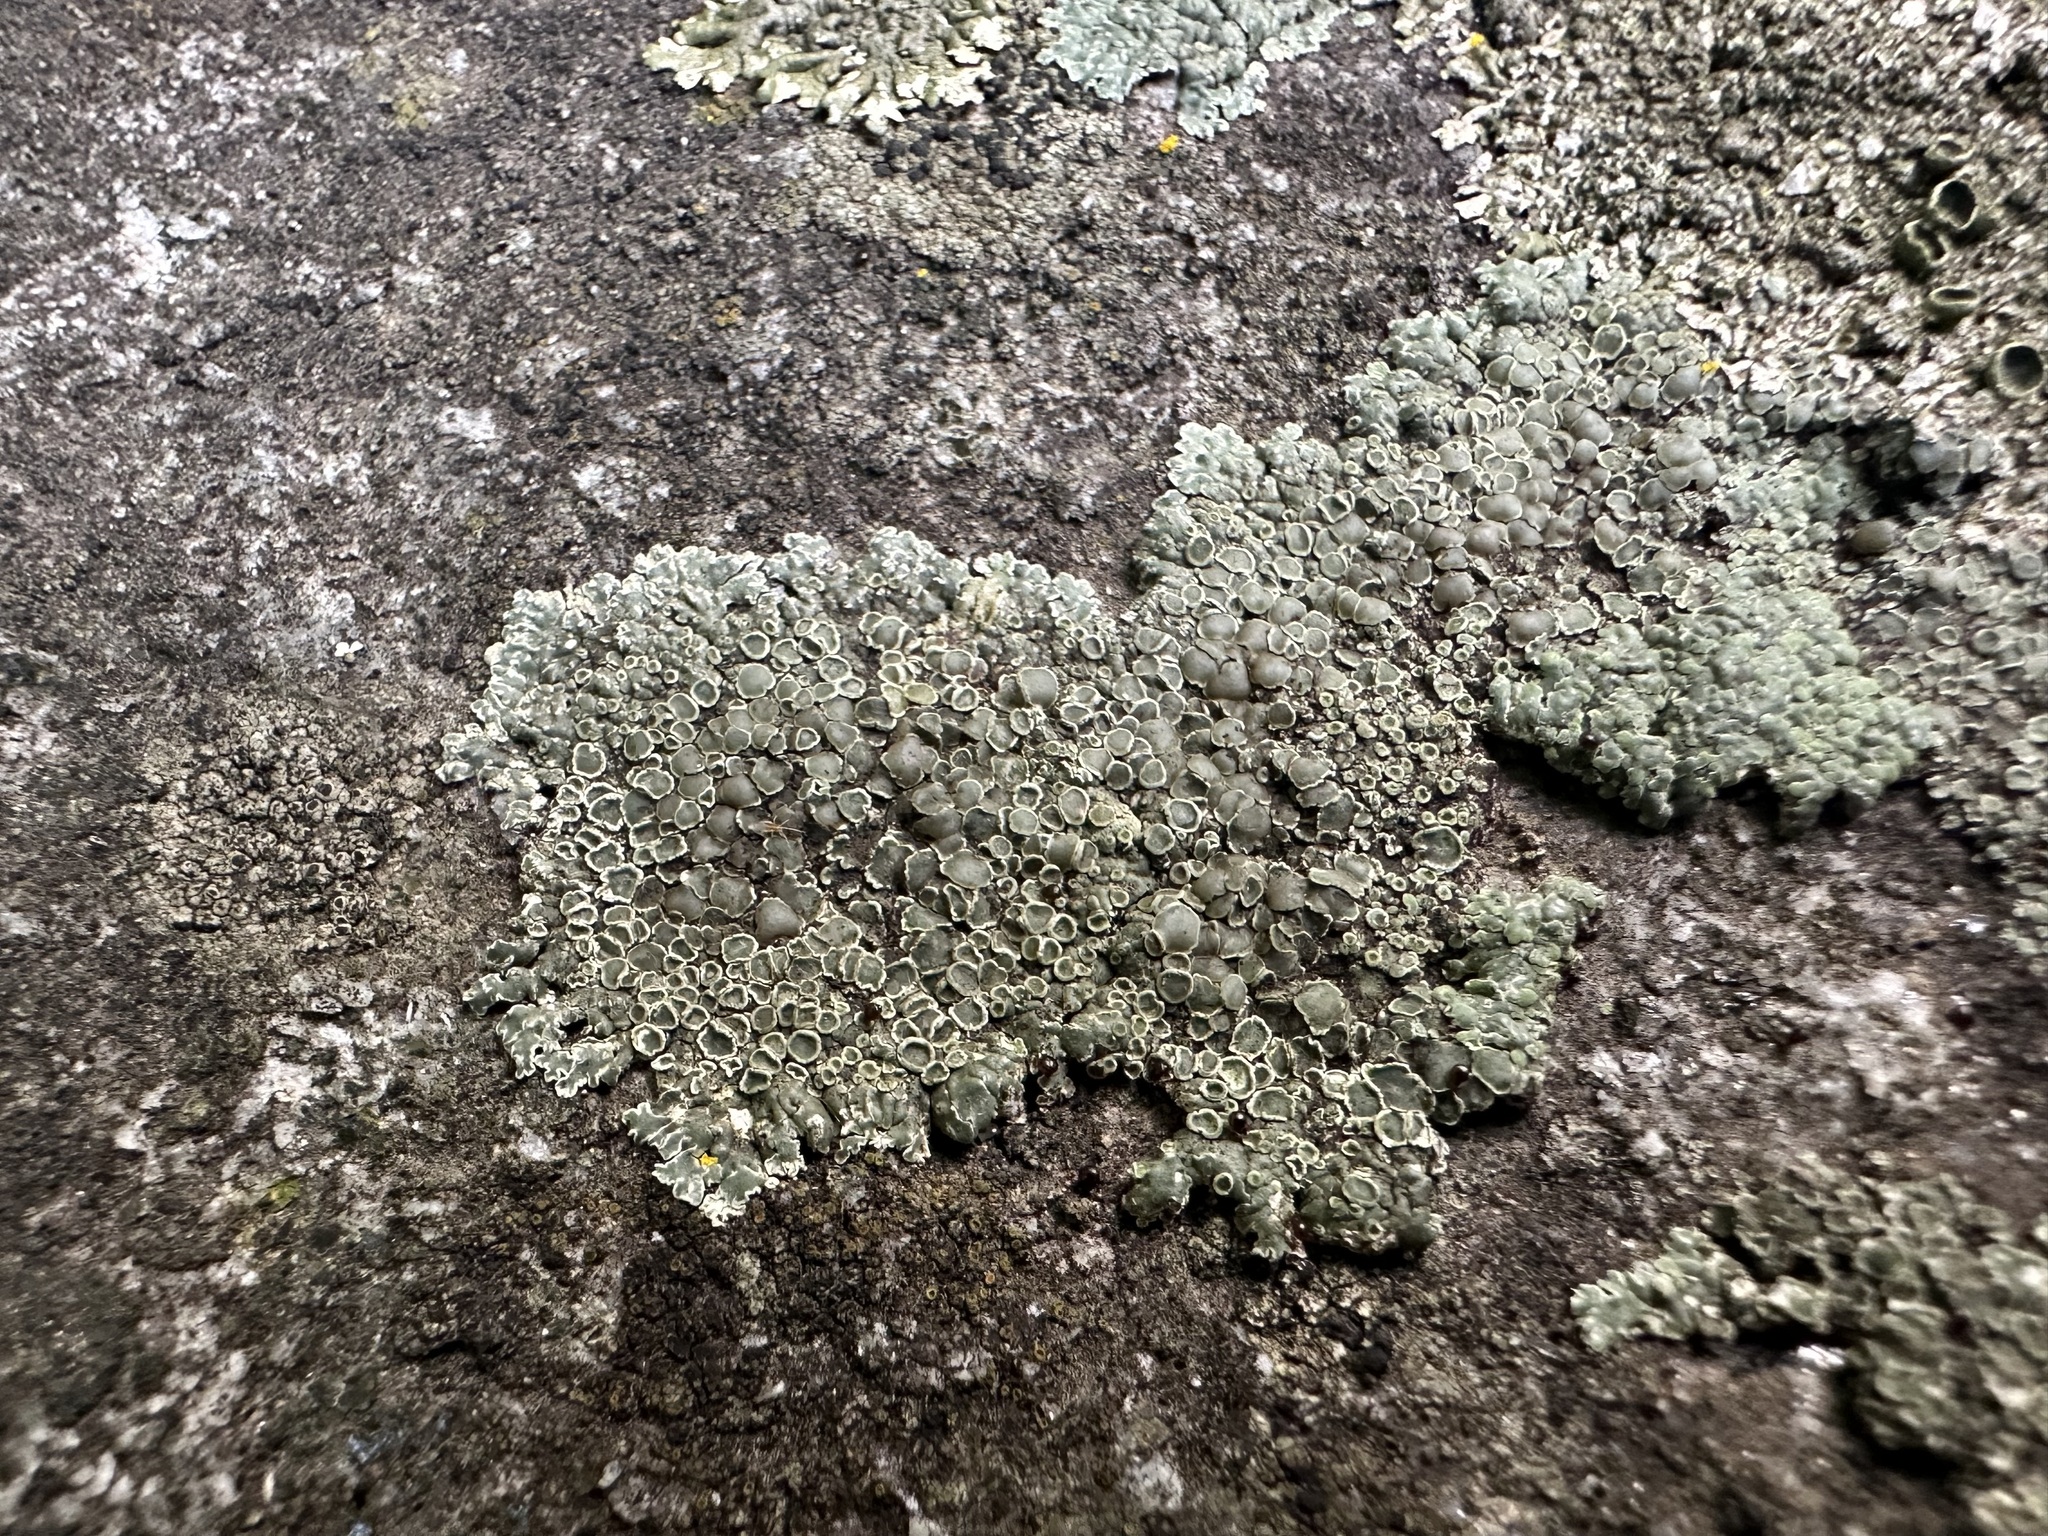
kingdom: Fungi
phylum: Ascomycota
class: Lecanoromycetes
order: Lecanorales
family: Lecanoraceae
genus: Protoparmeliopsis
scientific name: Protoparmeliopsis muralis
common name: Stonewall rim lichen
